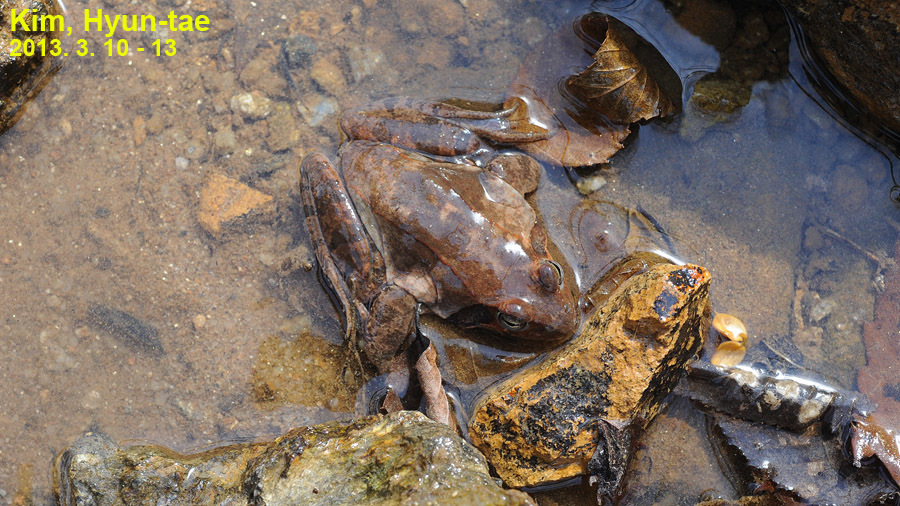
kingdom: Animalia
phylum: Chordata
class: Amphibia
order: Anura
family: Ranidae
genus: Rana
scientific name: Rana uenoi
